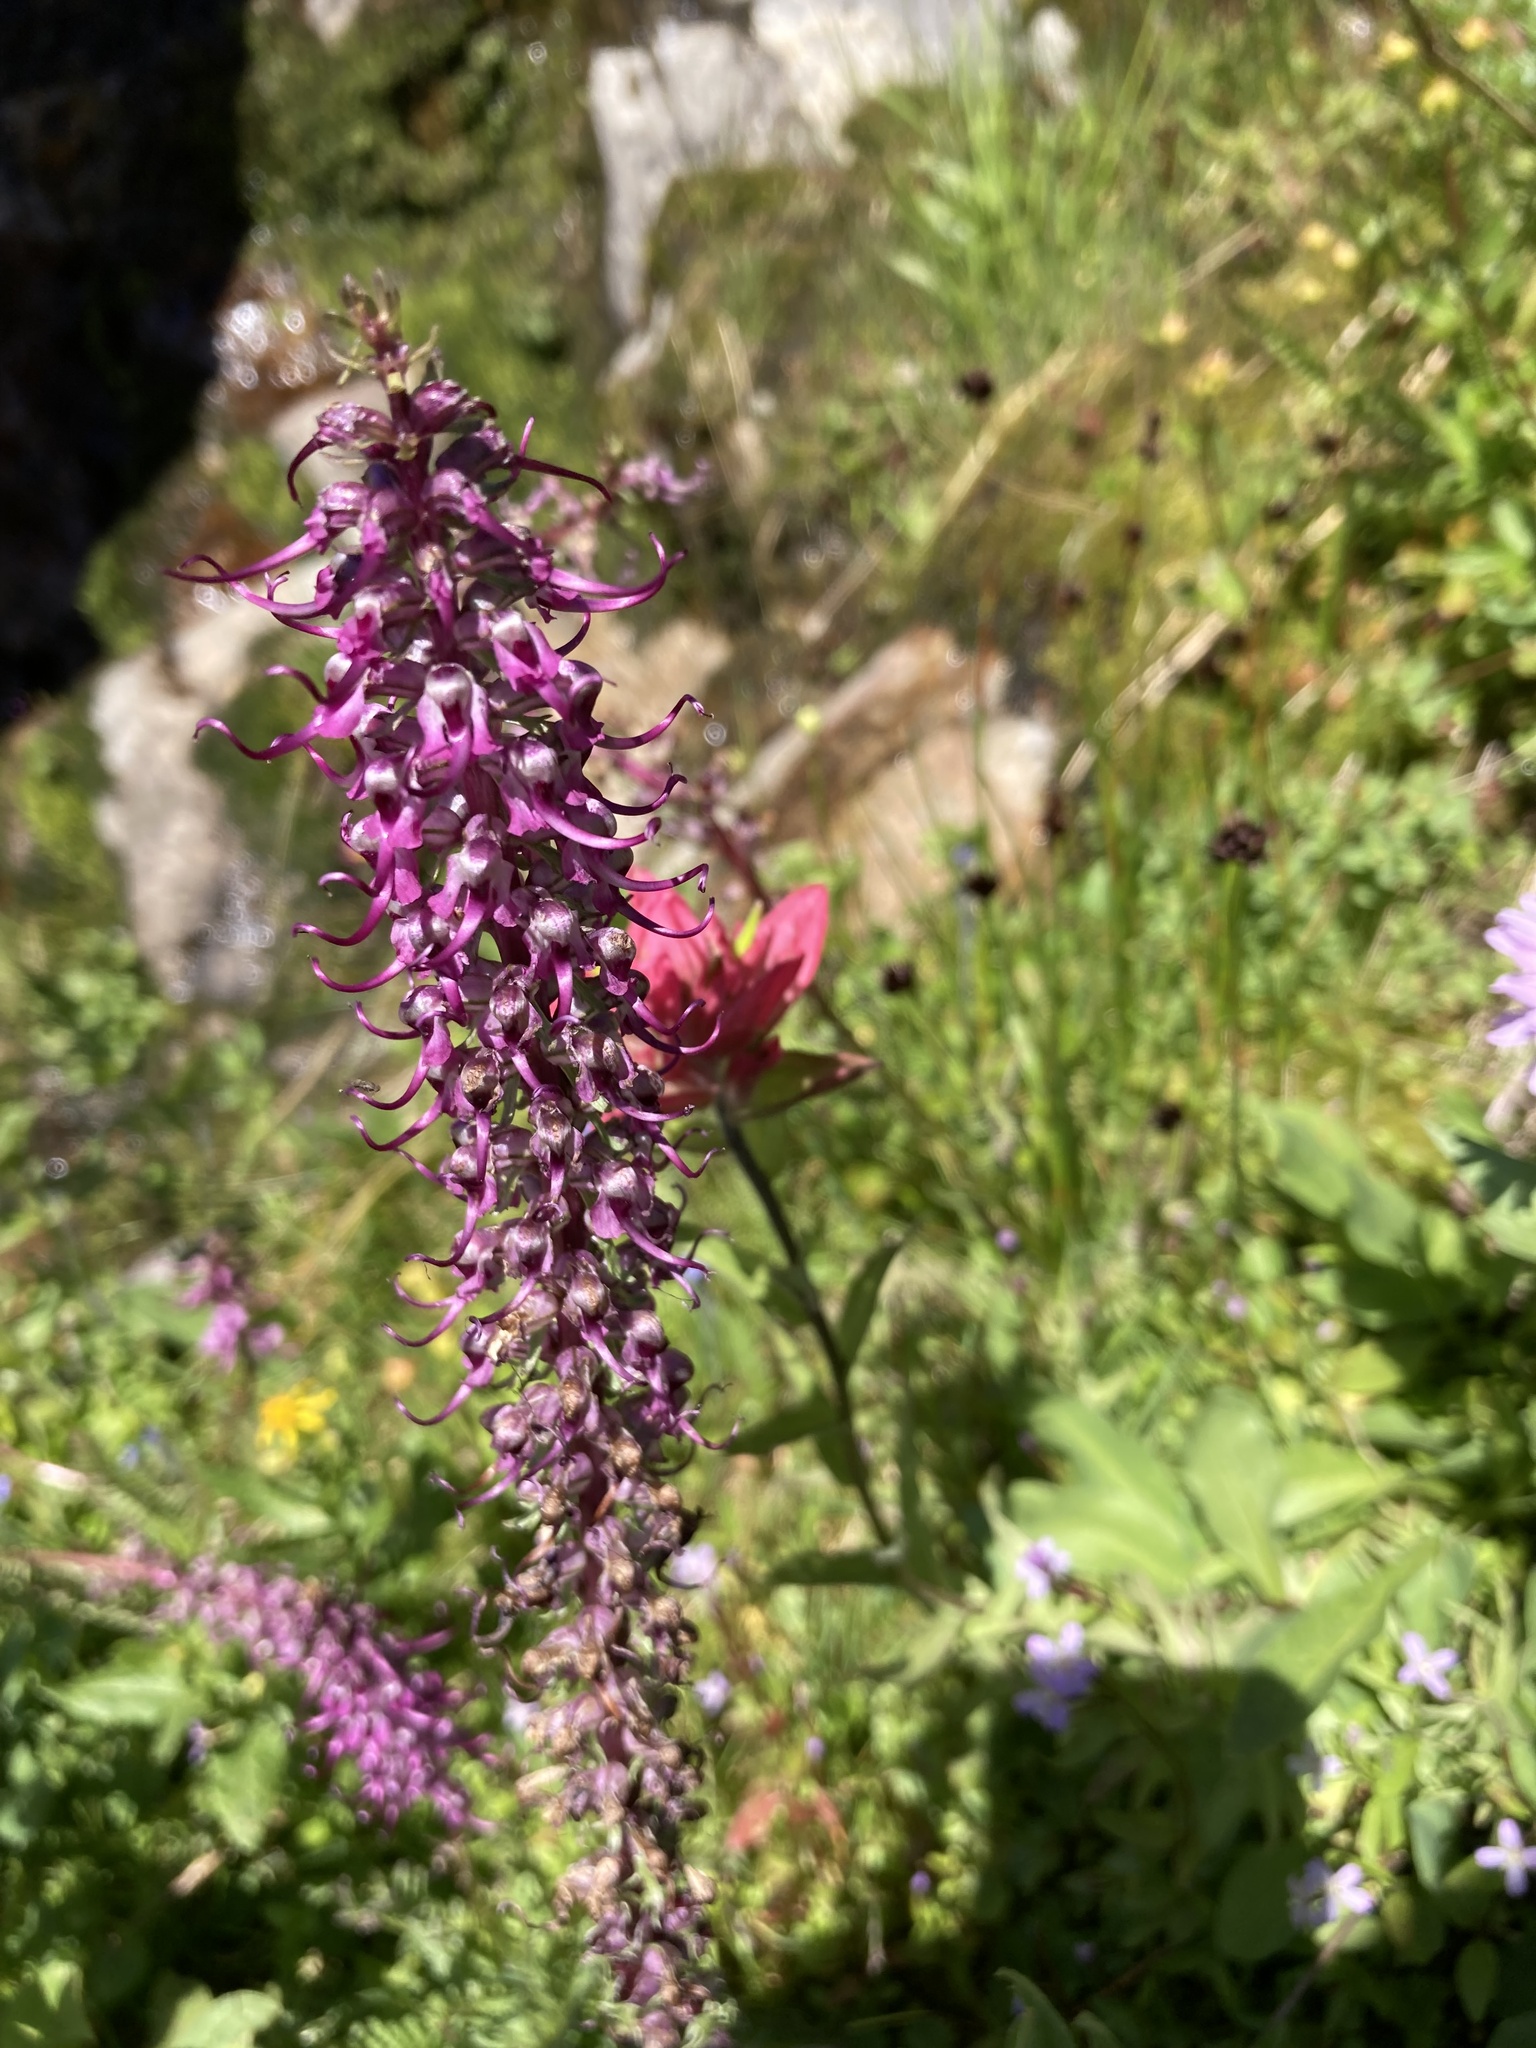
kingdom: Plantae
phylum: Tracheophyta
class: Magnoliopsida
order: Lamiales
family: Orobanchaceae
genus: Pedicularis
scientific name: Pedicularis groenlandica
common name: Elephant's-head
